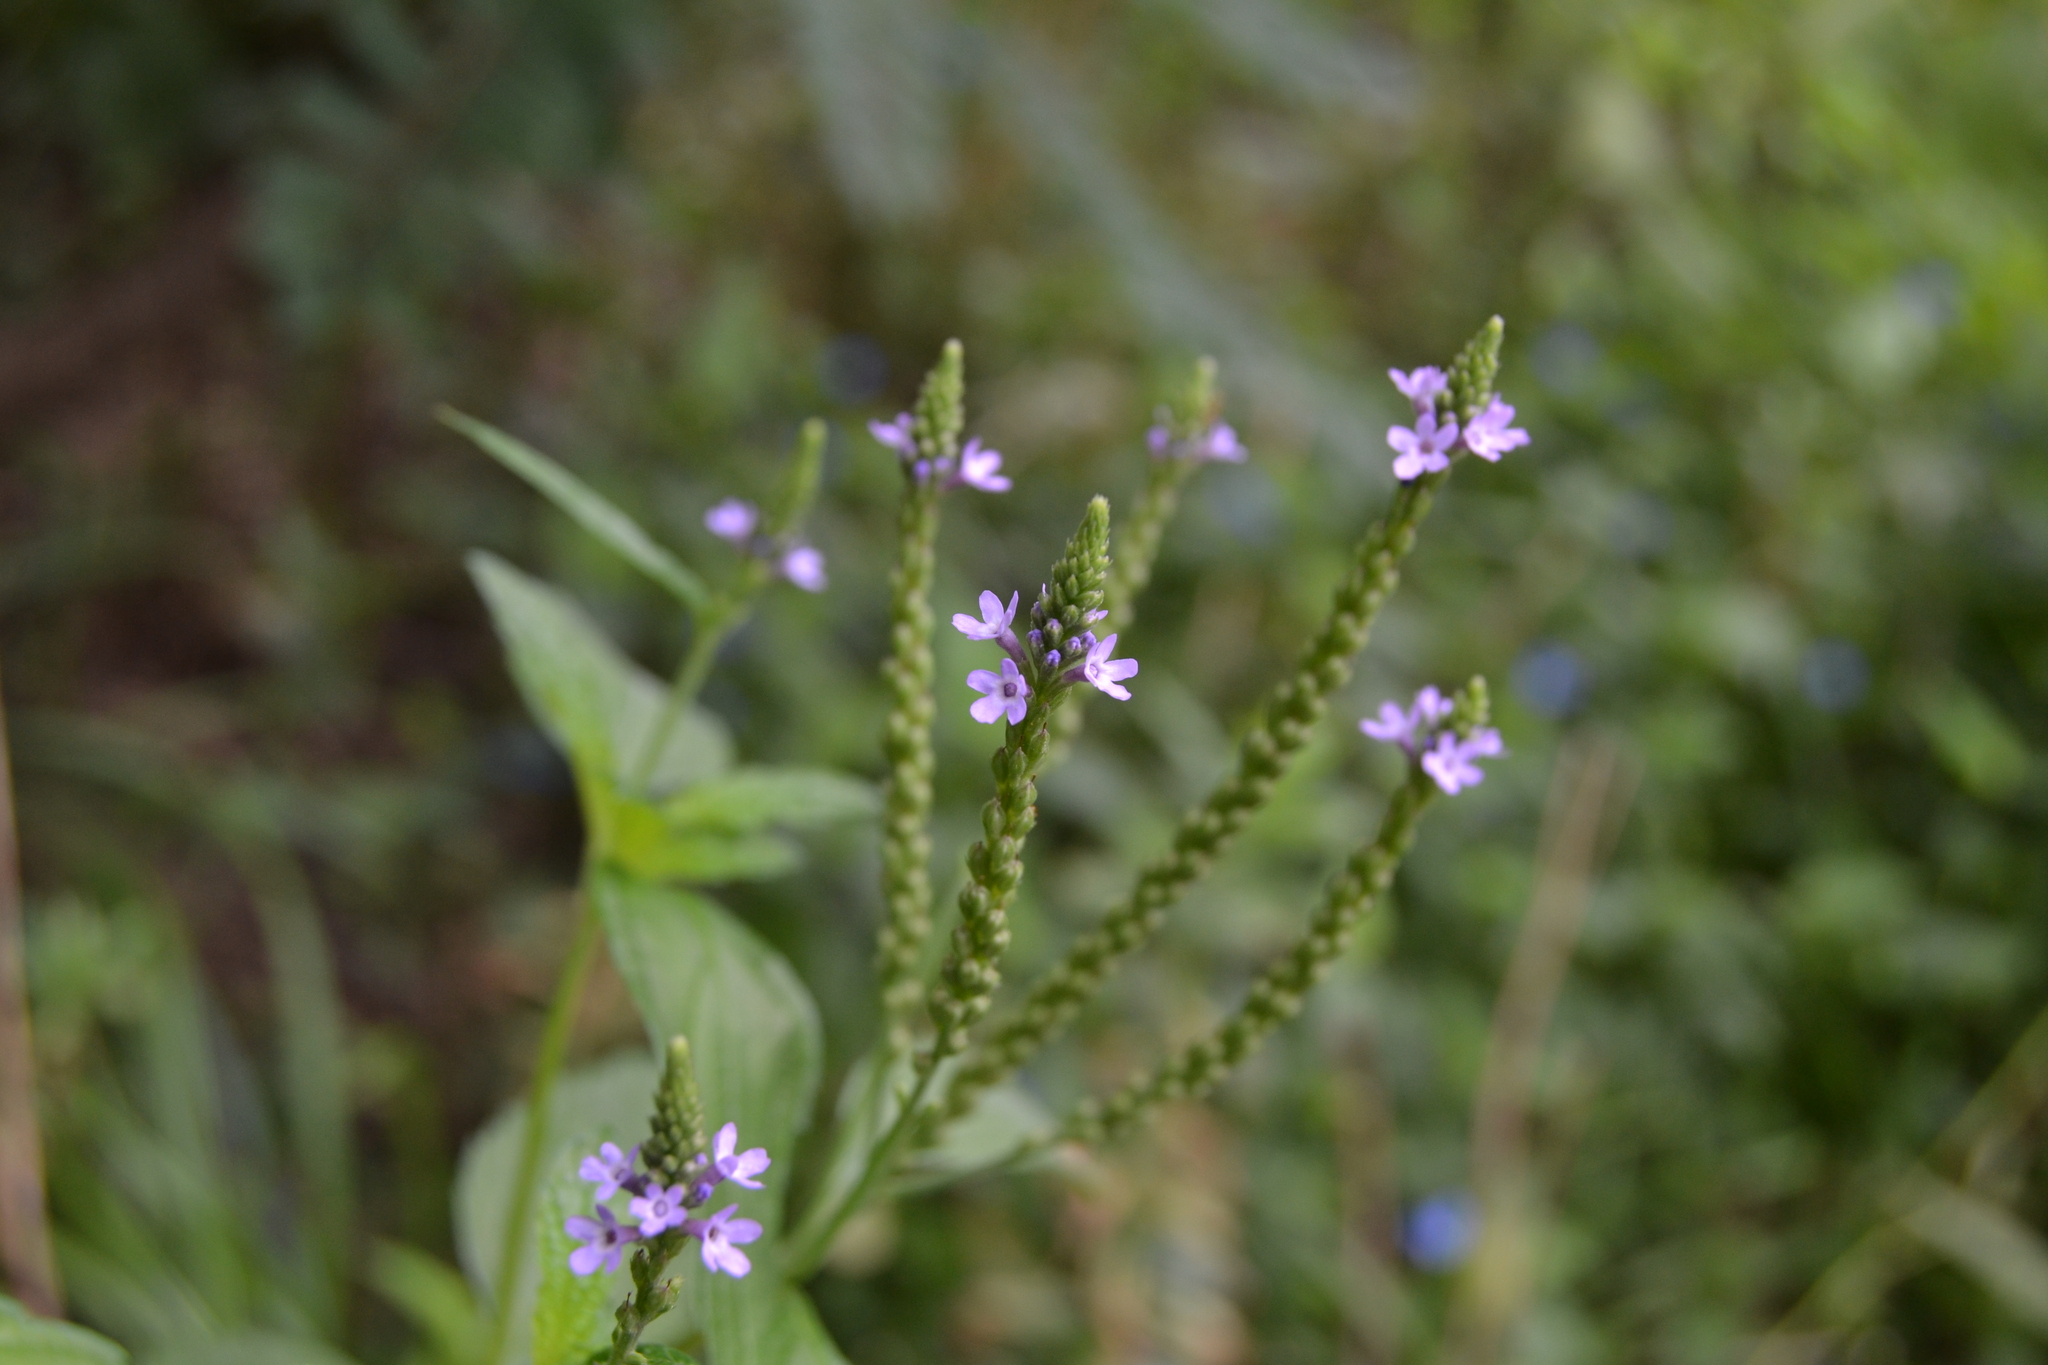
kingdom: Plantae
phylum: Tracheophyta
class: Magnoliopsida
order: Lamiales
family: Verbenaceae
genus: Verbena
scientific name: Verbena hastata
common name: American blue vervain
